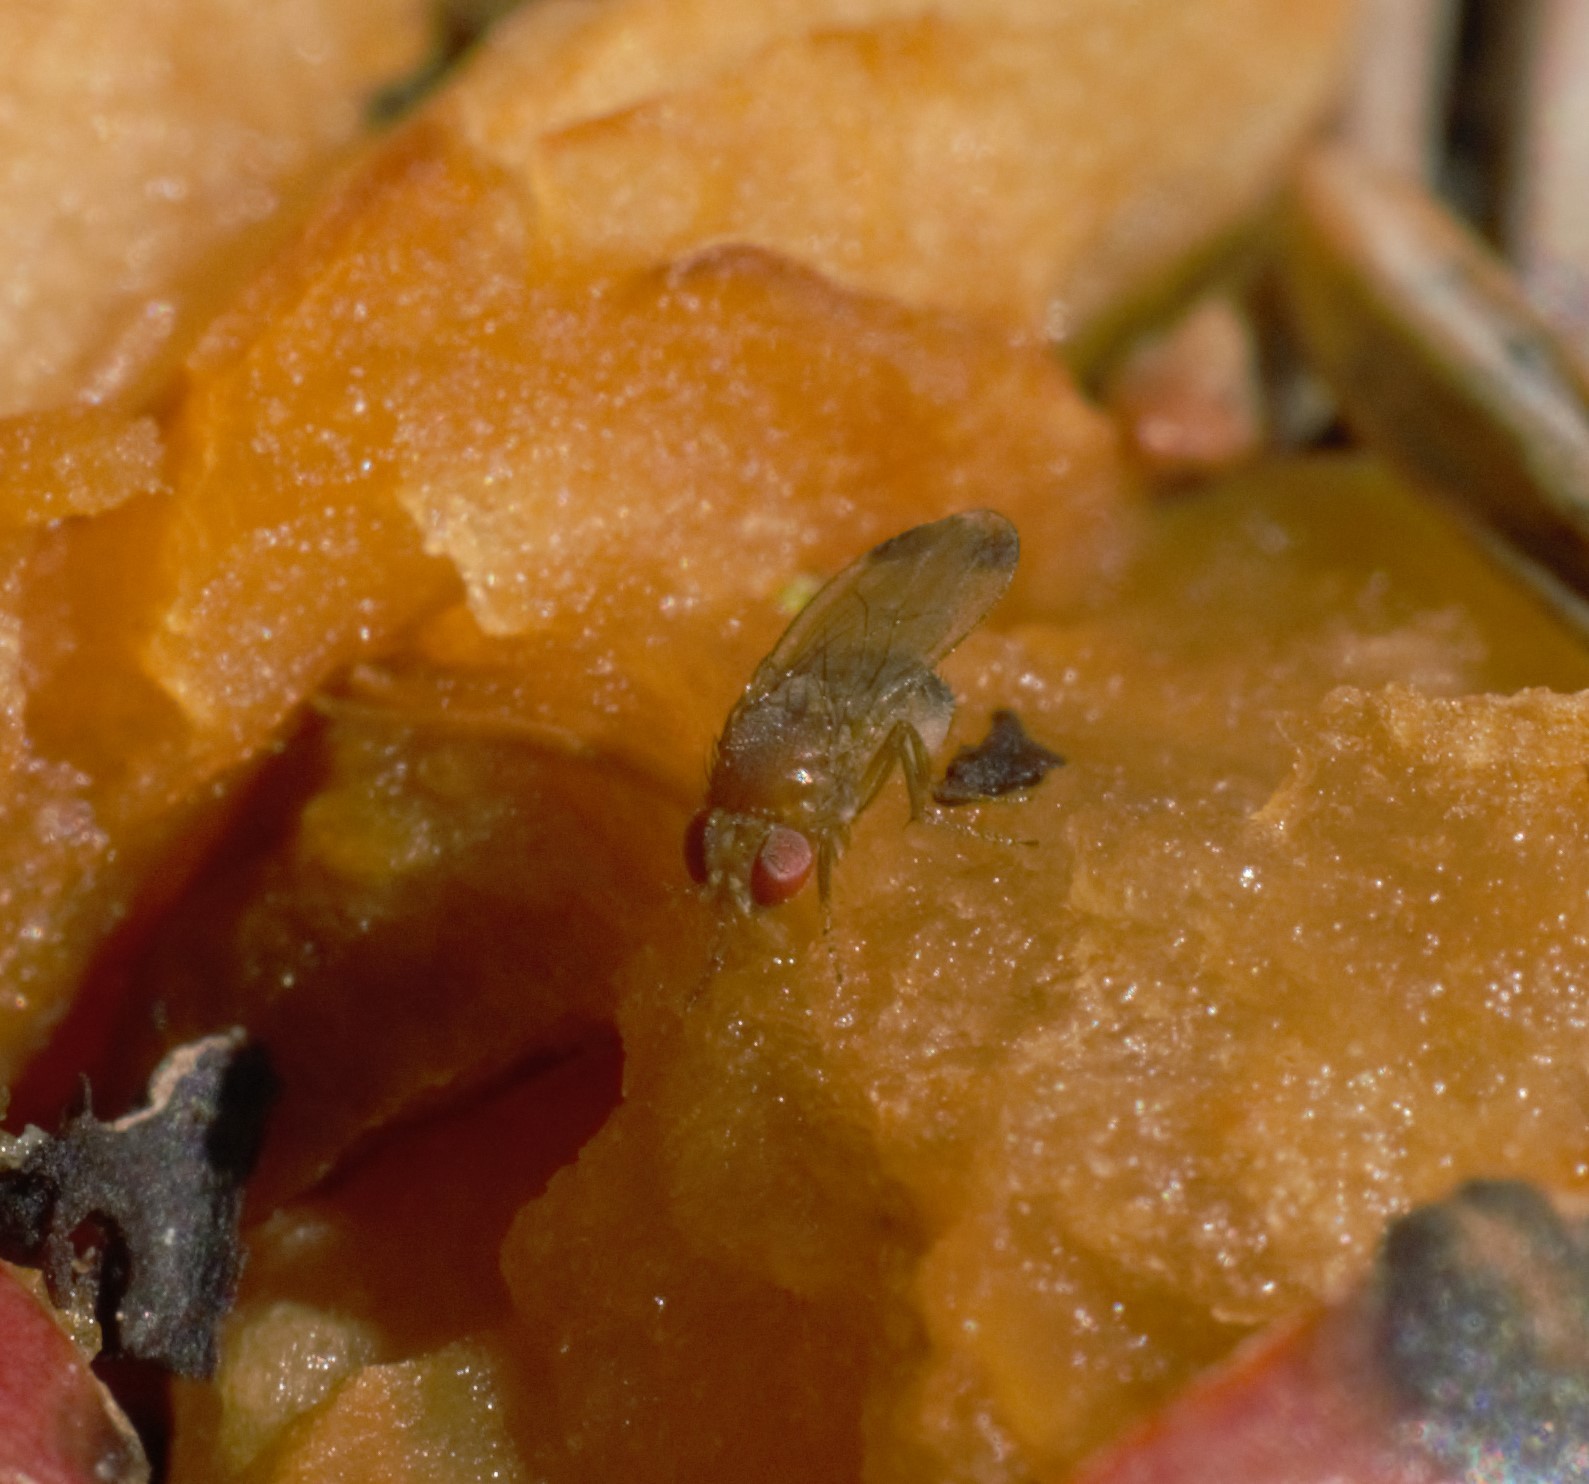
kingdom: Animalia
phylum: Arthropoda
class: Insecta
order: Diptera
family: Drosophilidae
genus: Drosophila
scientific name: Drosophila suzukii
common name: Spotted-wing drosophila
